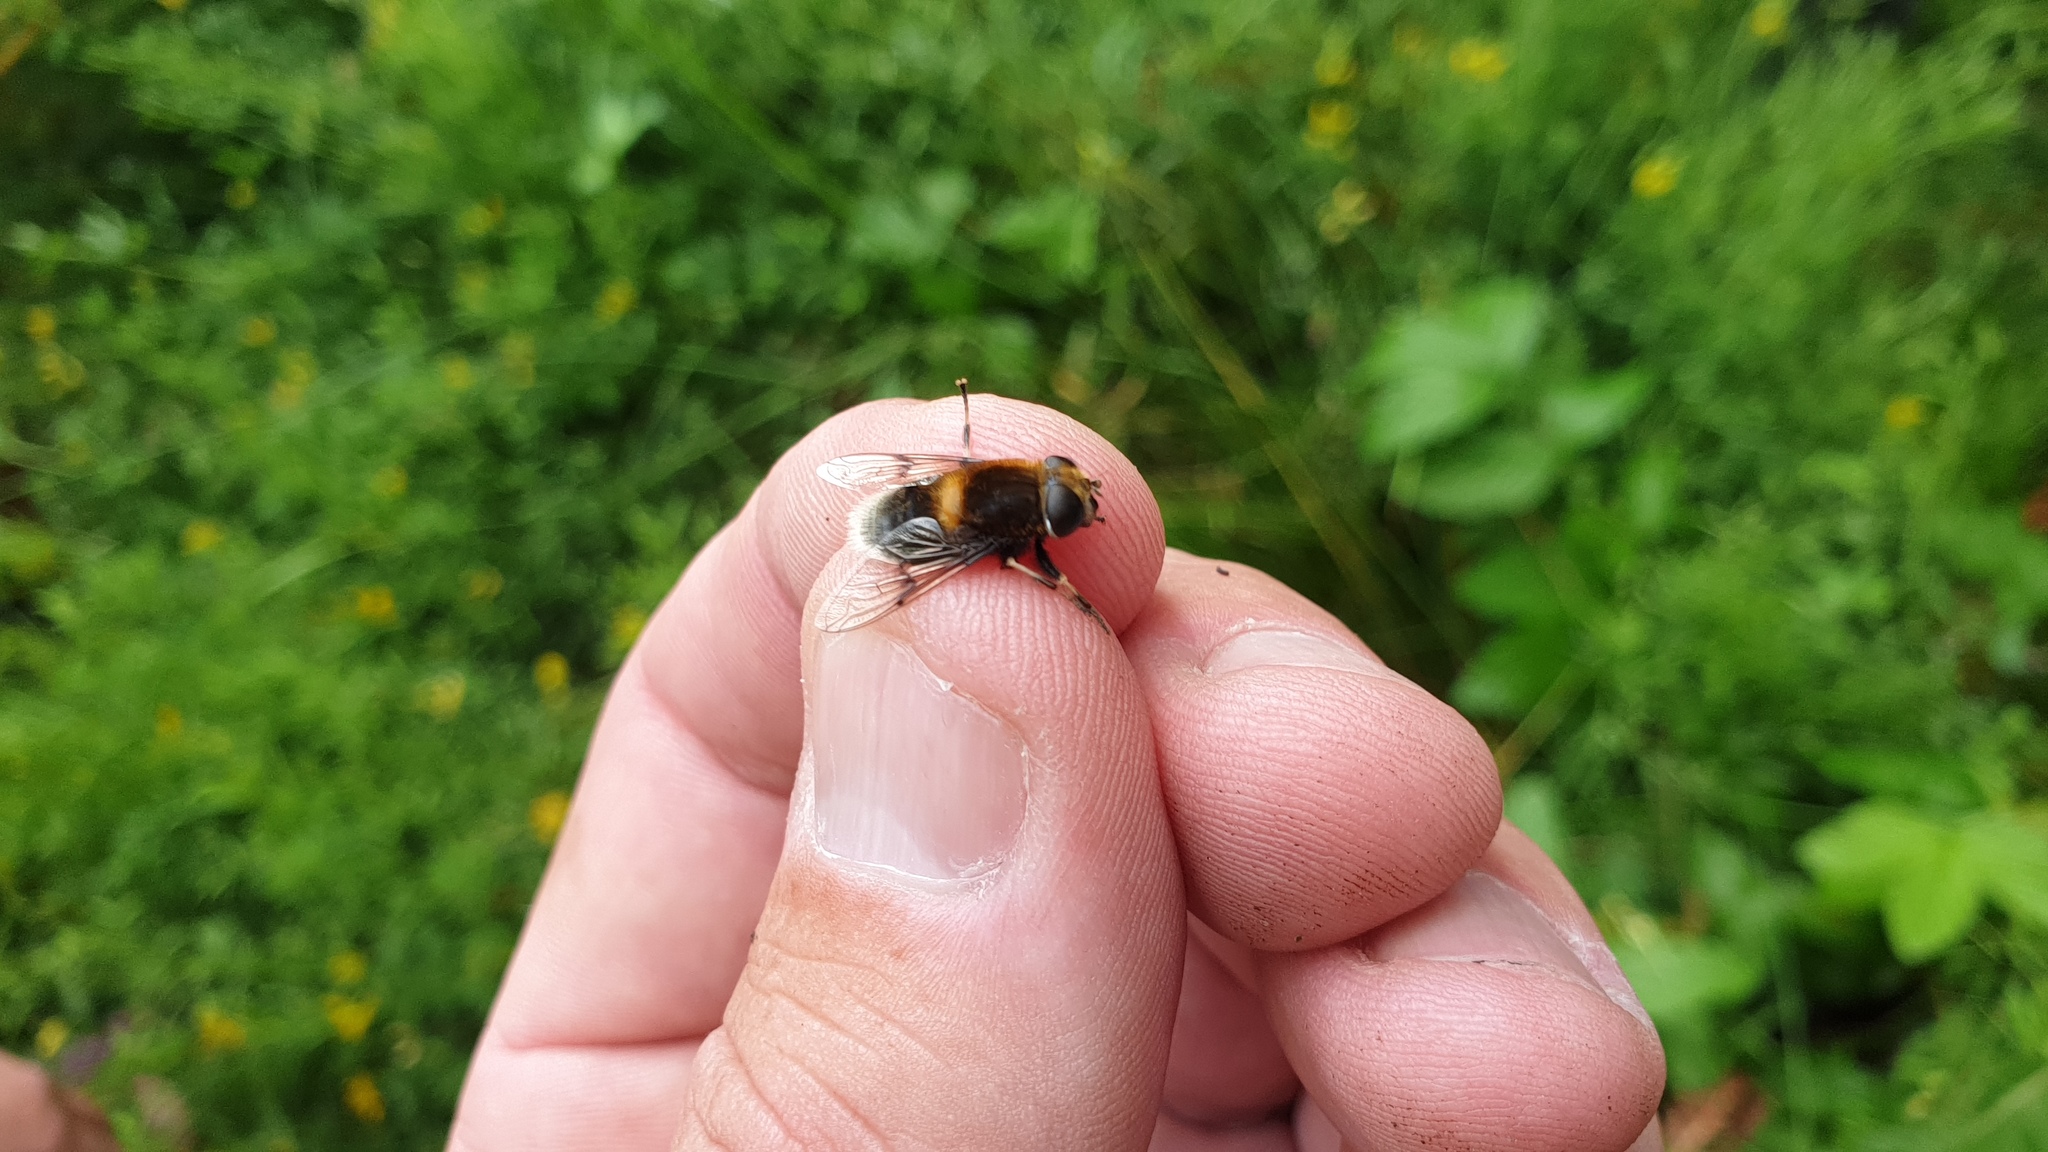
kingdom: Animalia
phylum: Arthropoda
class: Insecta
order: Diptera
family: Syrphidae
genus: Eristalis
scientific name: Eristalis intricaria
